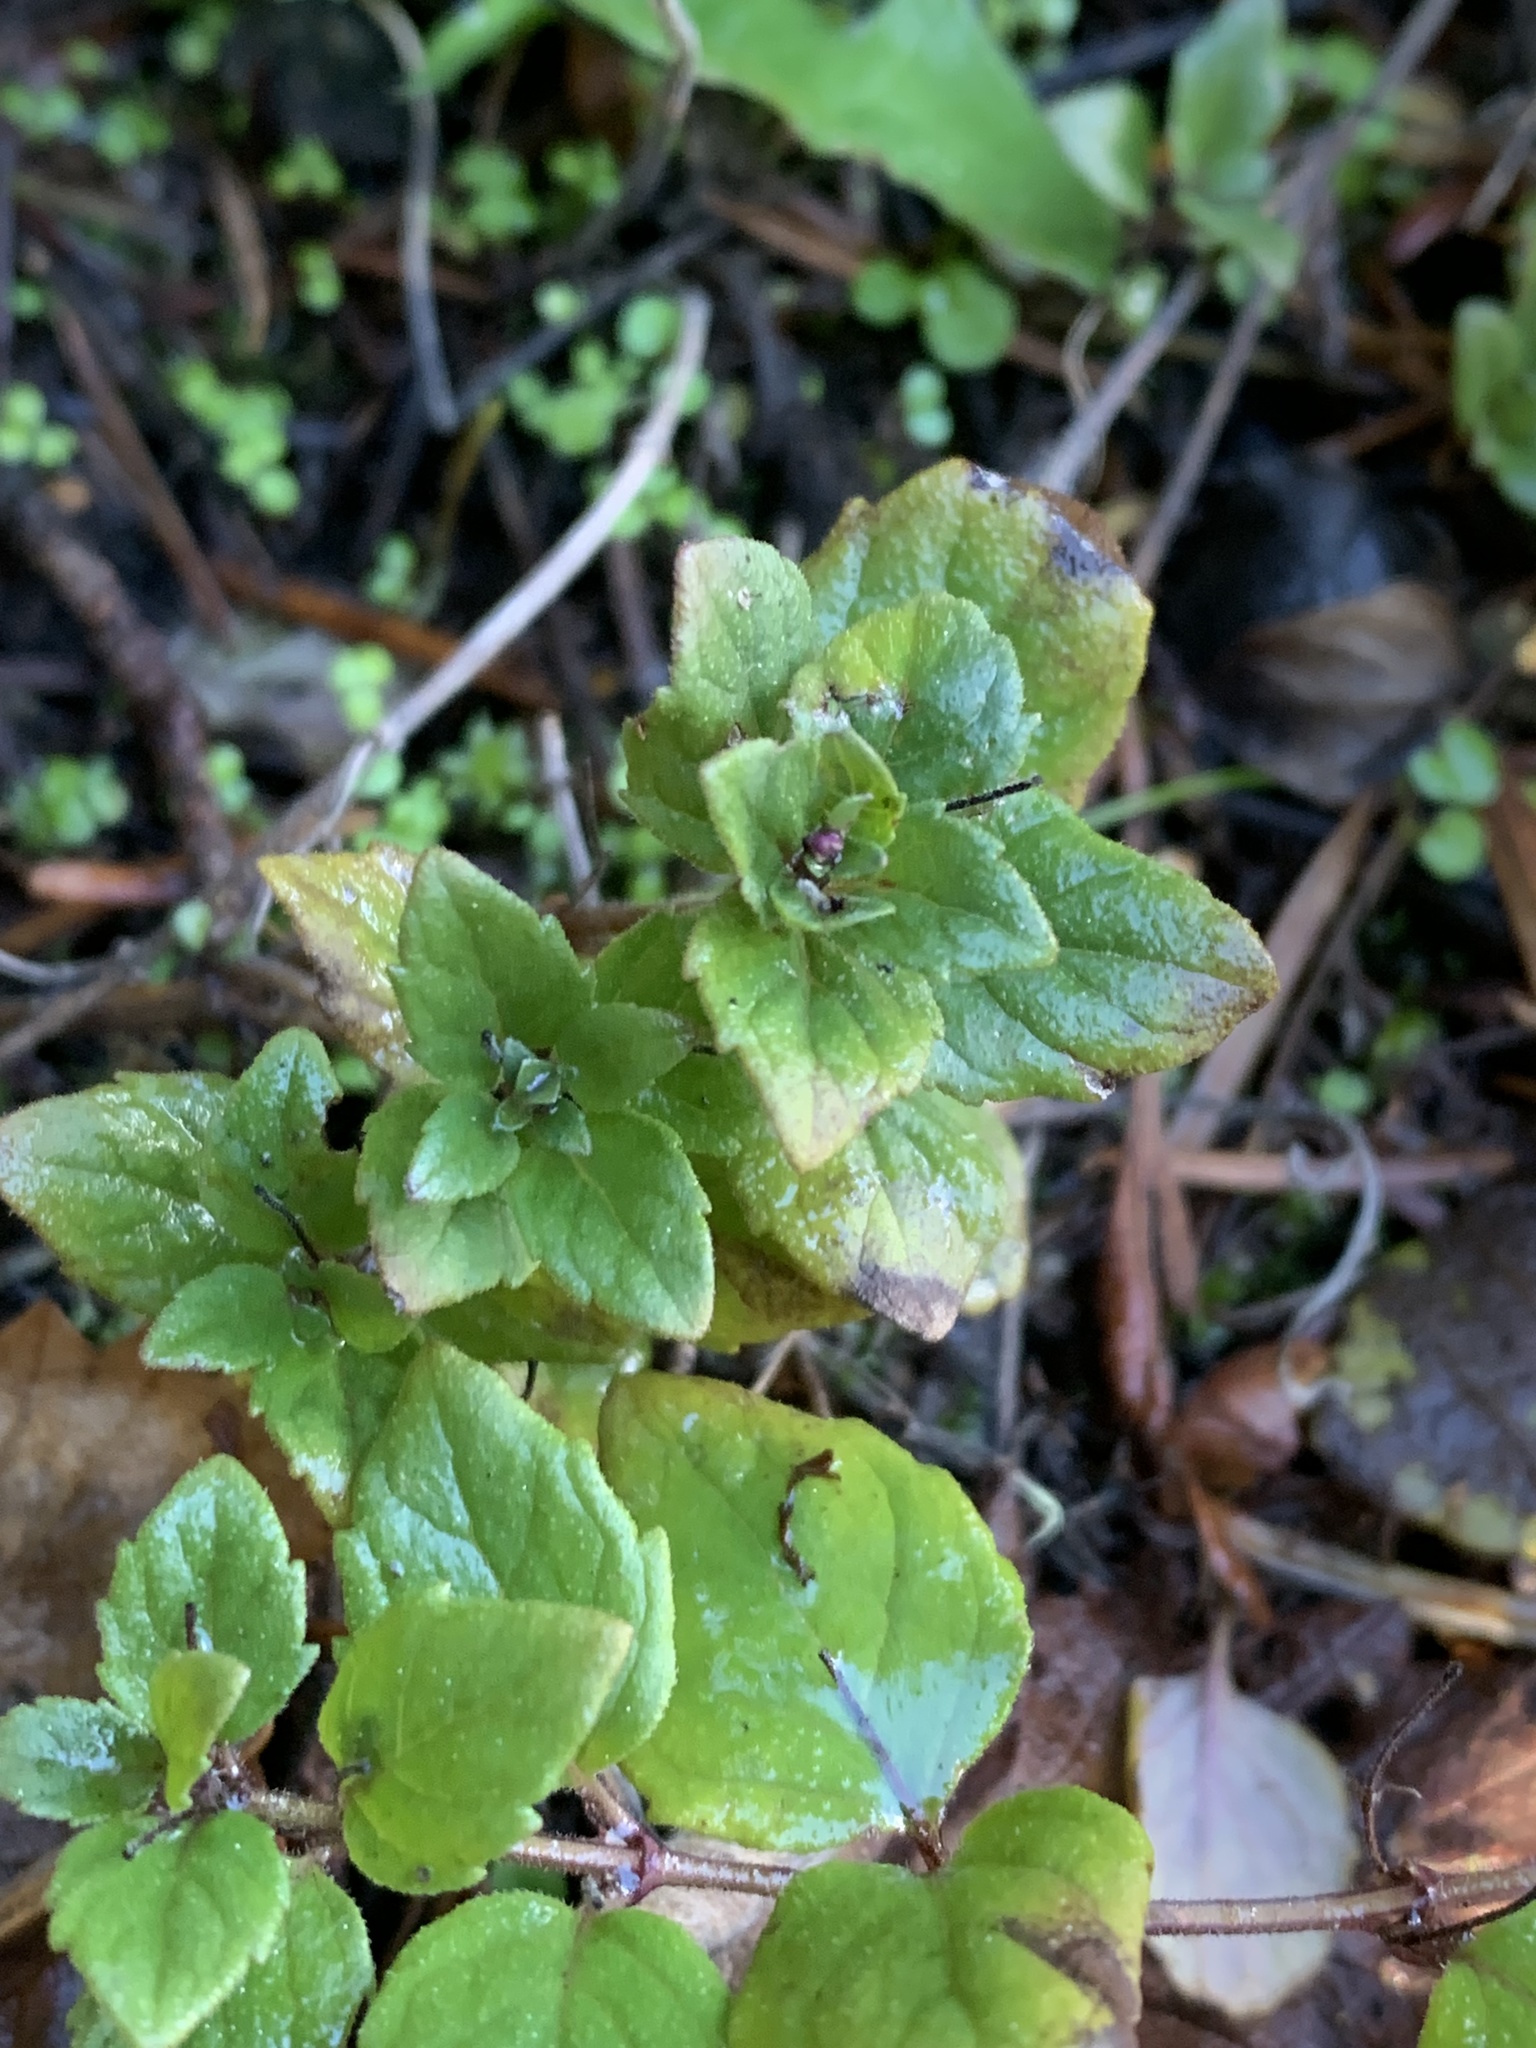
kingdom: Plantae
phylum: Tracheophyta
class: Magnoliopsida
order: Lamiales
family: Lamiaceae
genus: Micromeria
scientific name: Micromeria douglasii
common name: Yerba buena
